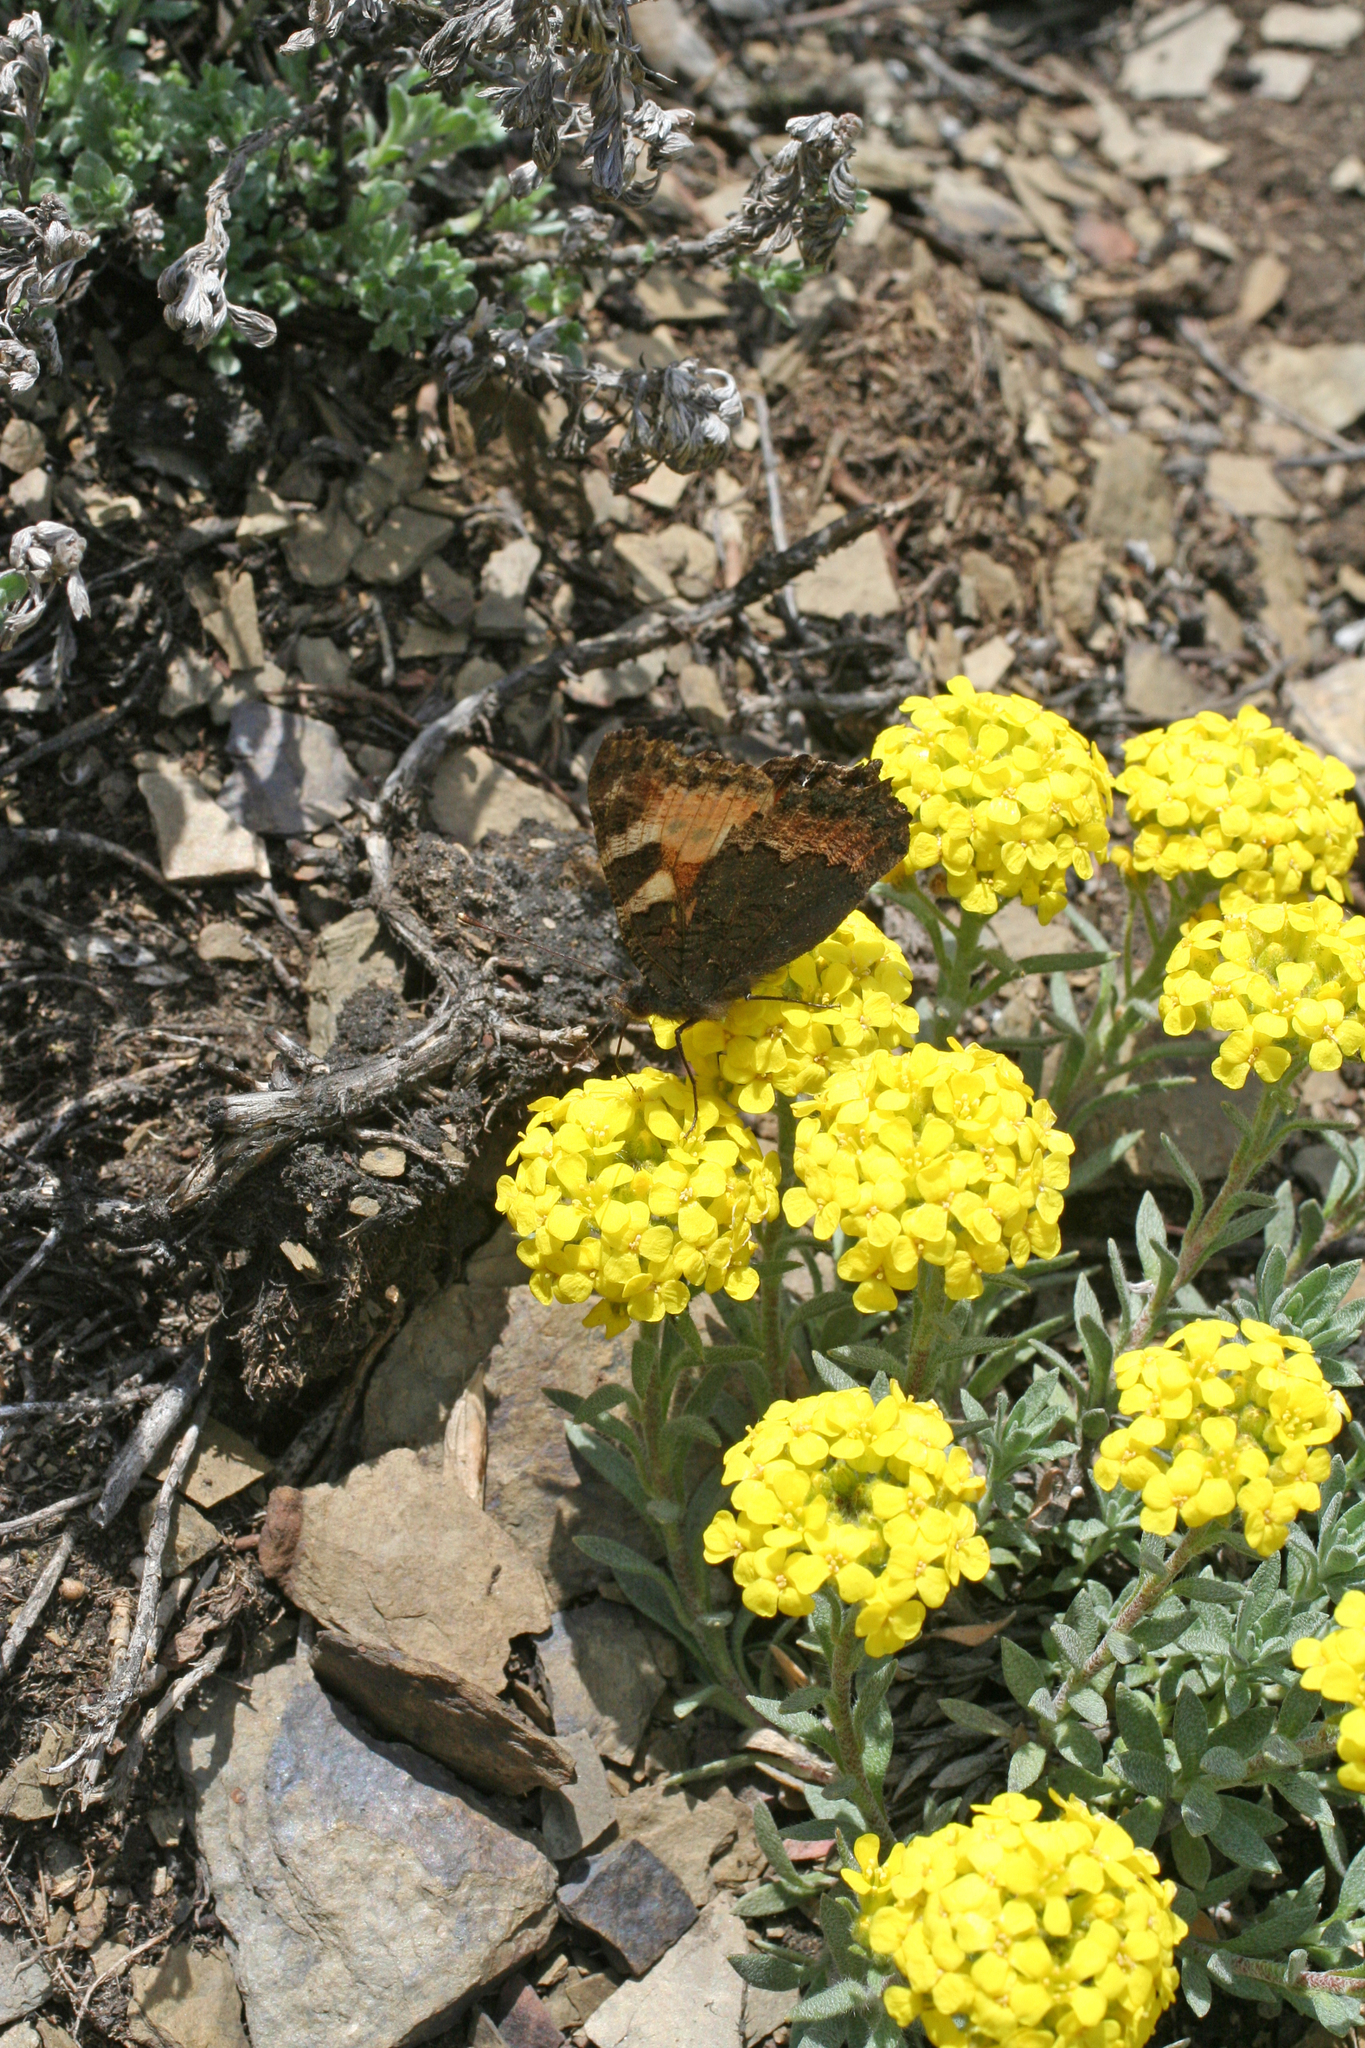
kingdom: Animalia
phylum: Arthropoda
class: Insecta
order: Lepidoptera
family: Nymphalidae
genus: Aglais
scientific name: Aglais urticae
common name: Small tortoiseshell
